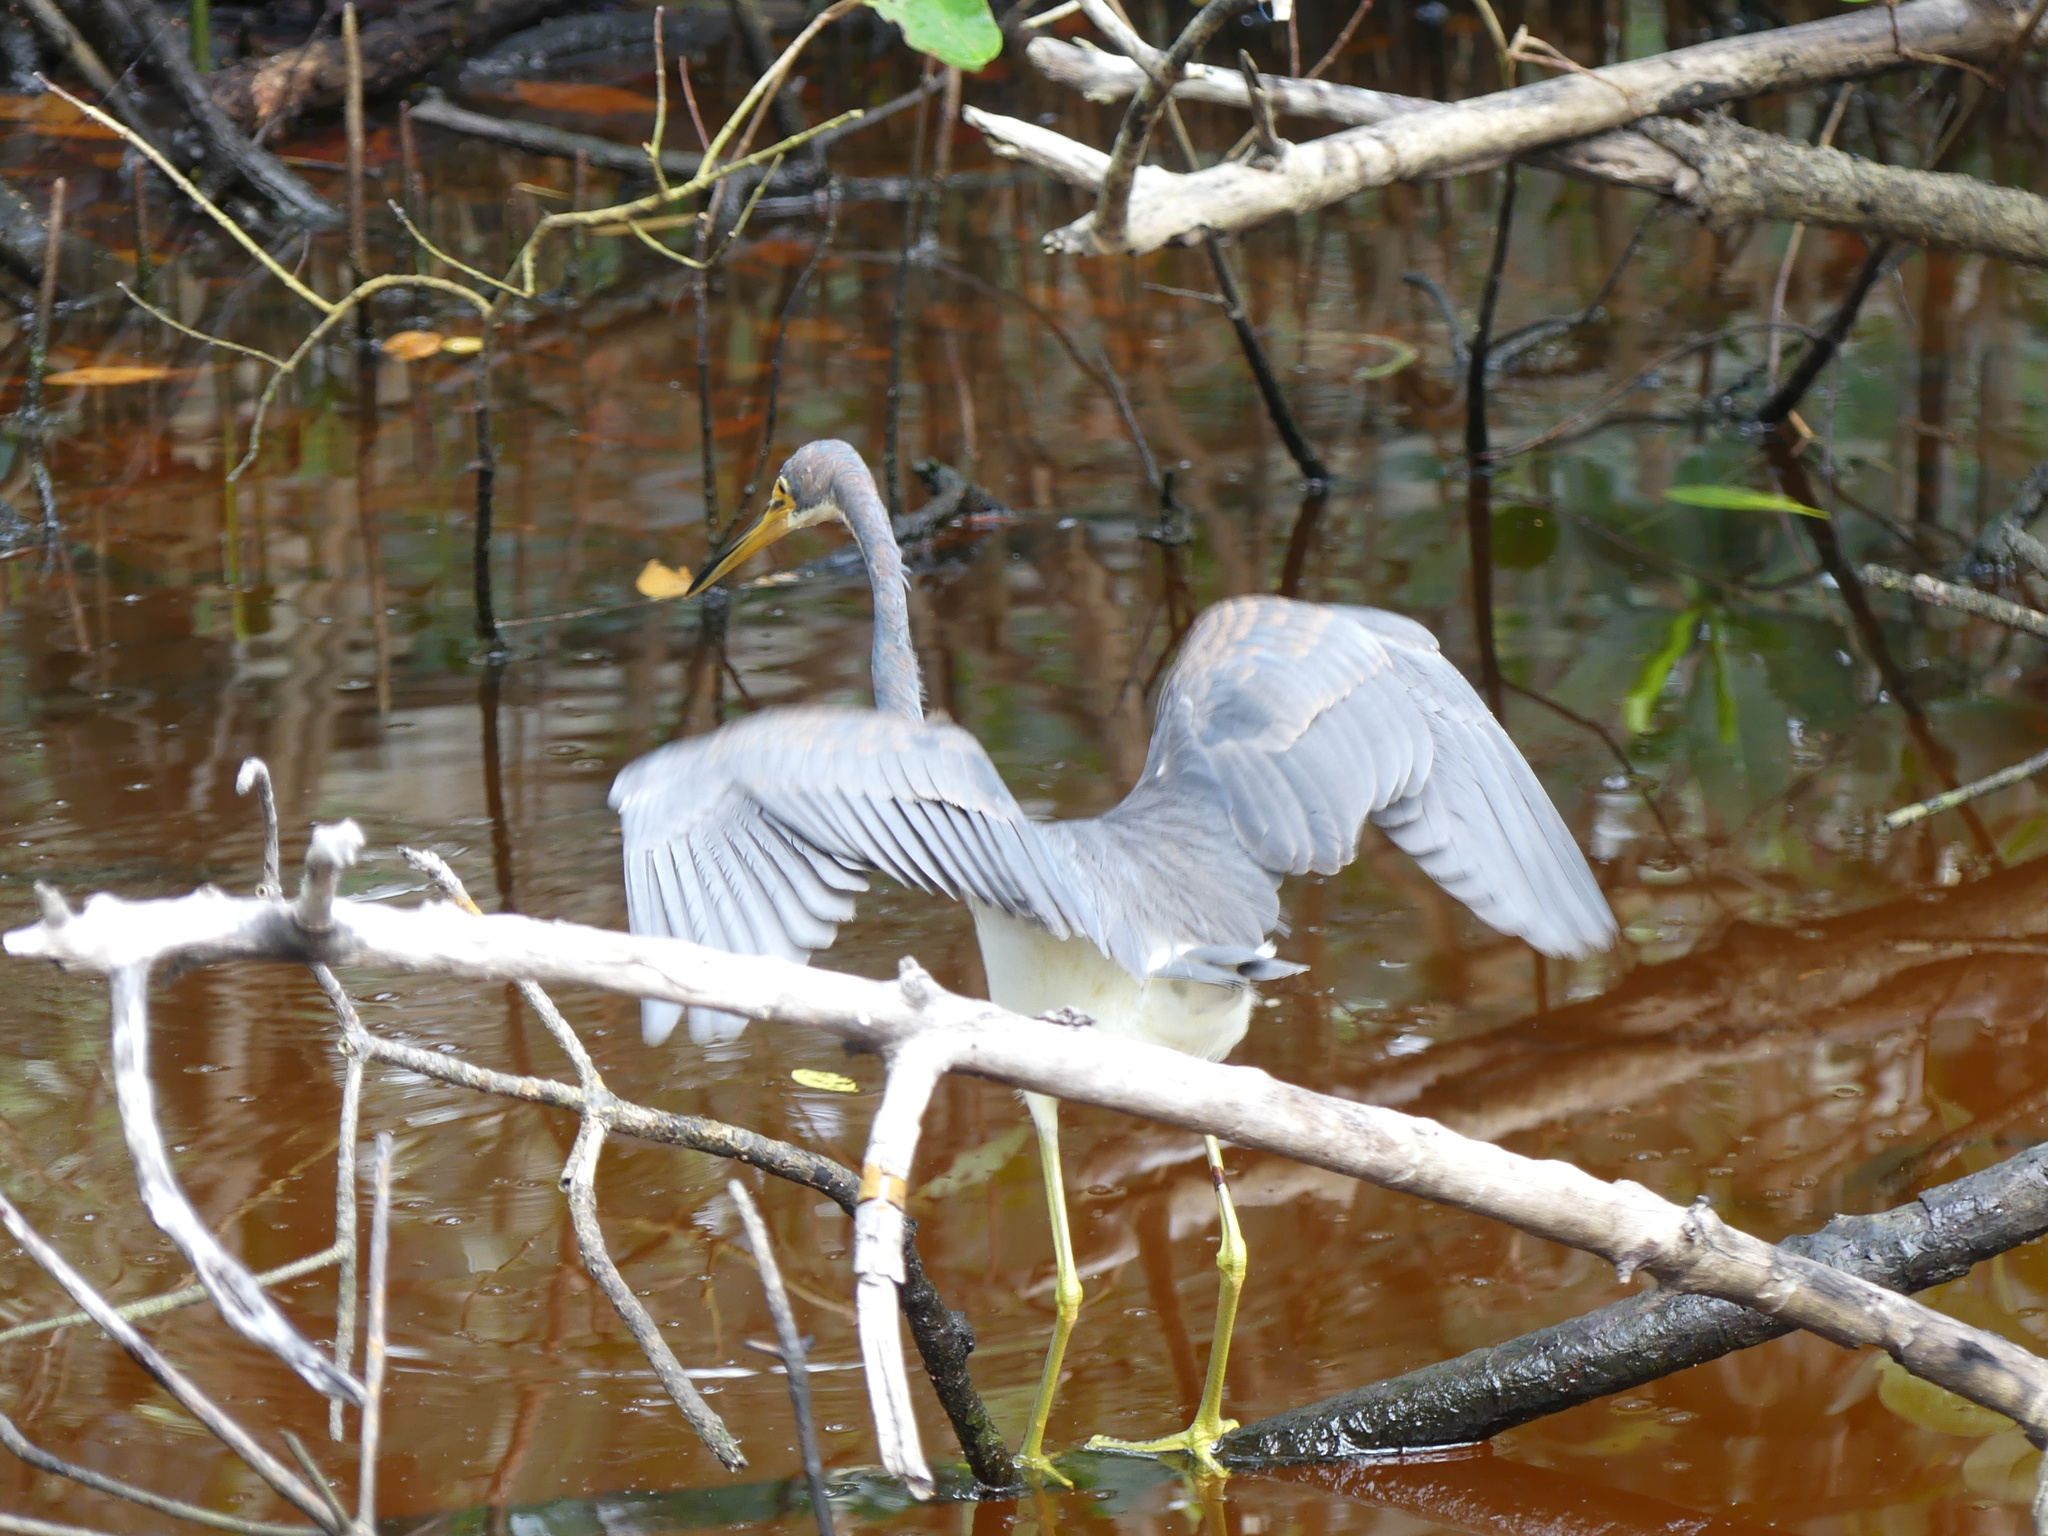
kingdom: Animalia
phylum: Chordata
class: Aves
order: Pelecaniformes
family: Ardeidae
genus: Egretta
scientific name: Egretta tricolor
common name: Tricolored heron
